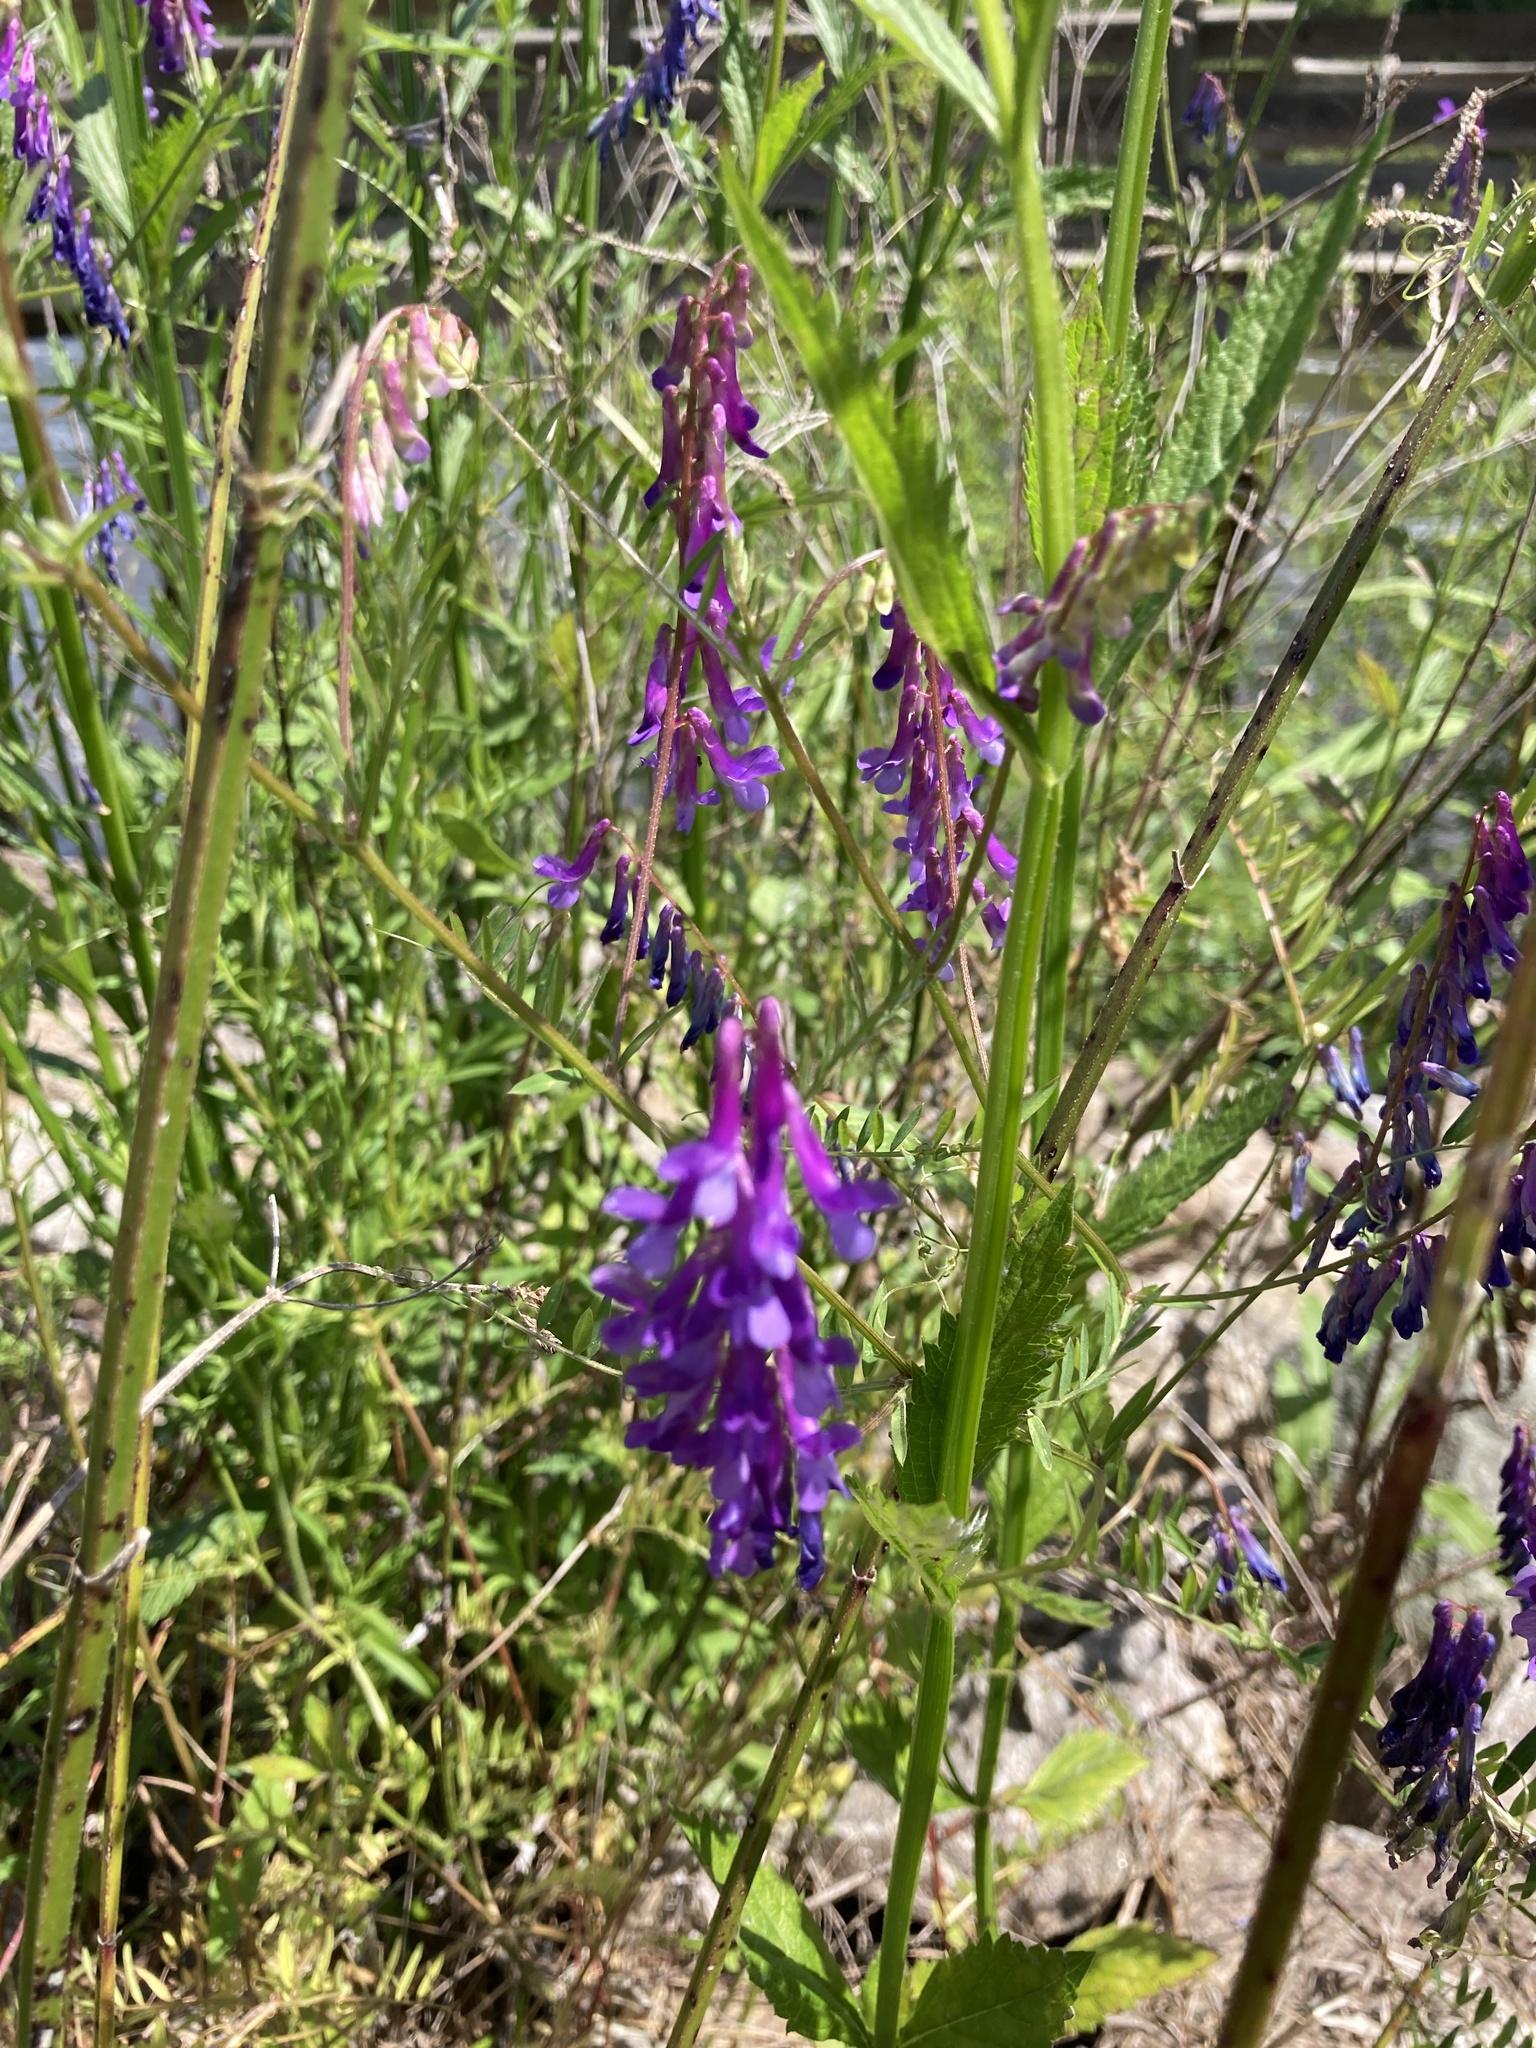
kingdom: Plantae
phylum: Tracheophyta
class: Magnoliopsida
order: Fabales
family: Fabaceae
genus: Vicia
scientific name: Vicia villosa
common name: Fodder vetch
